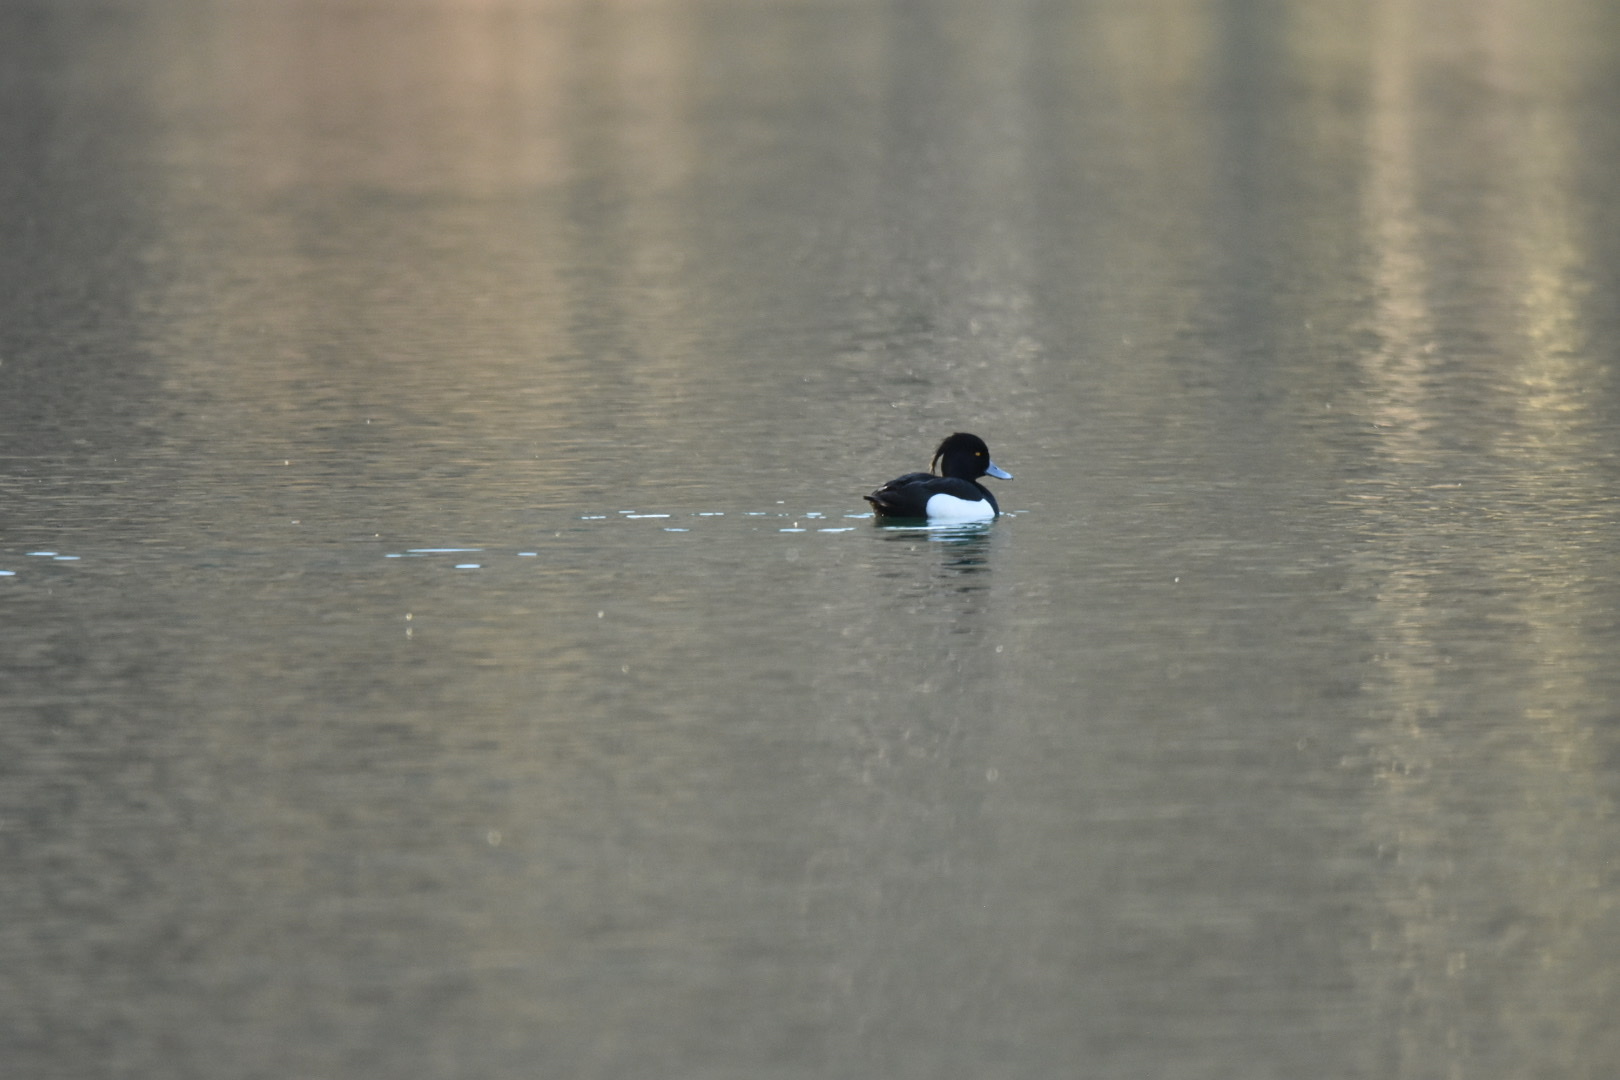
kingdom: Animalia
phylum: Chordata
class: Aves
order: Anseriformes
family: Anatidae
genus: Aythya
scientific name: Aythya fuligula
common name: Tufted duck
